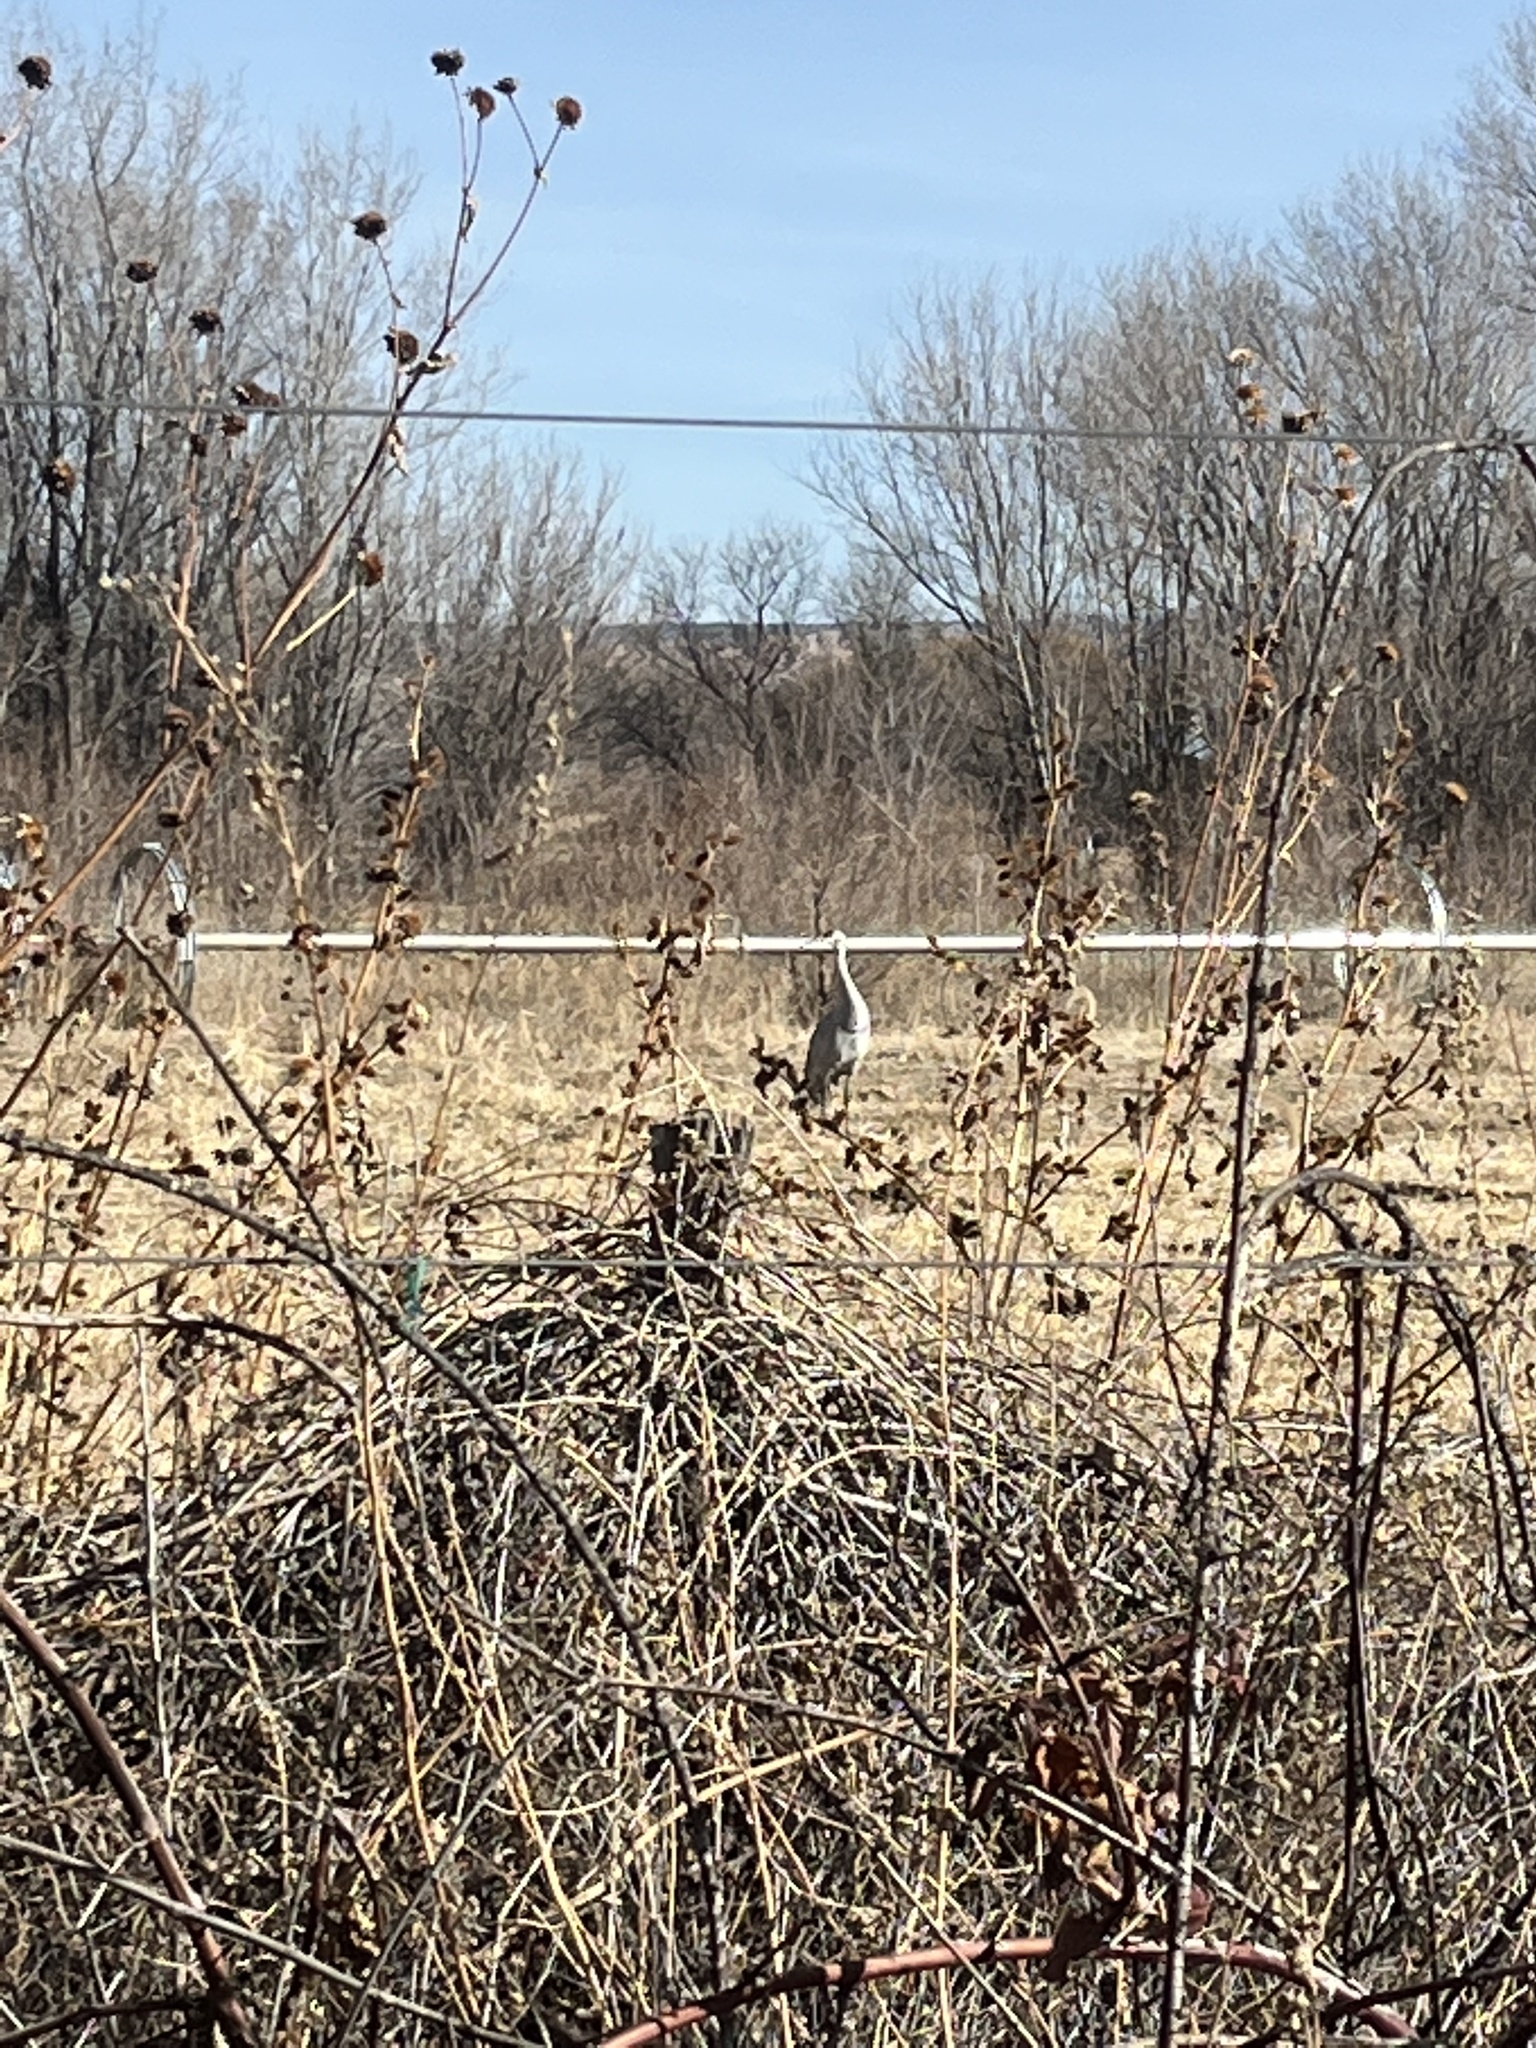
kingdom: Animalia
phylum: Chordata
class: Aves
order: Gruiformes
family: Gruidae
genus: Grus
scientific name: Grus canadensis
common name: Sandhill crane
